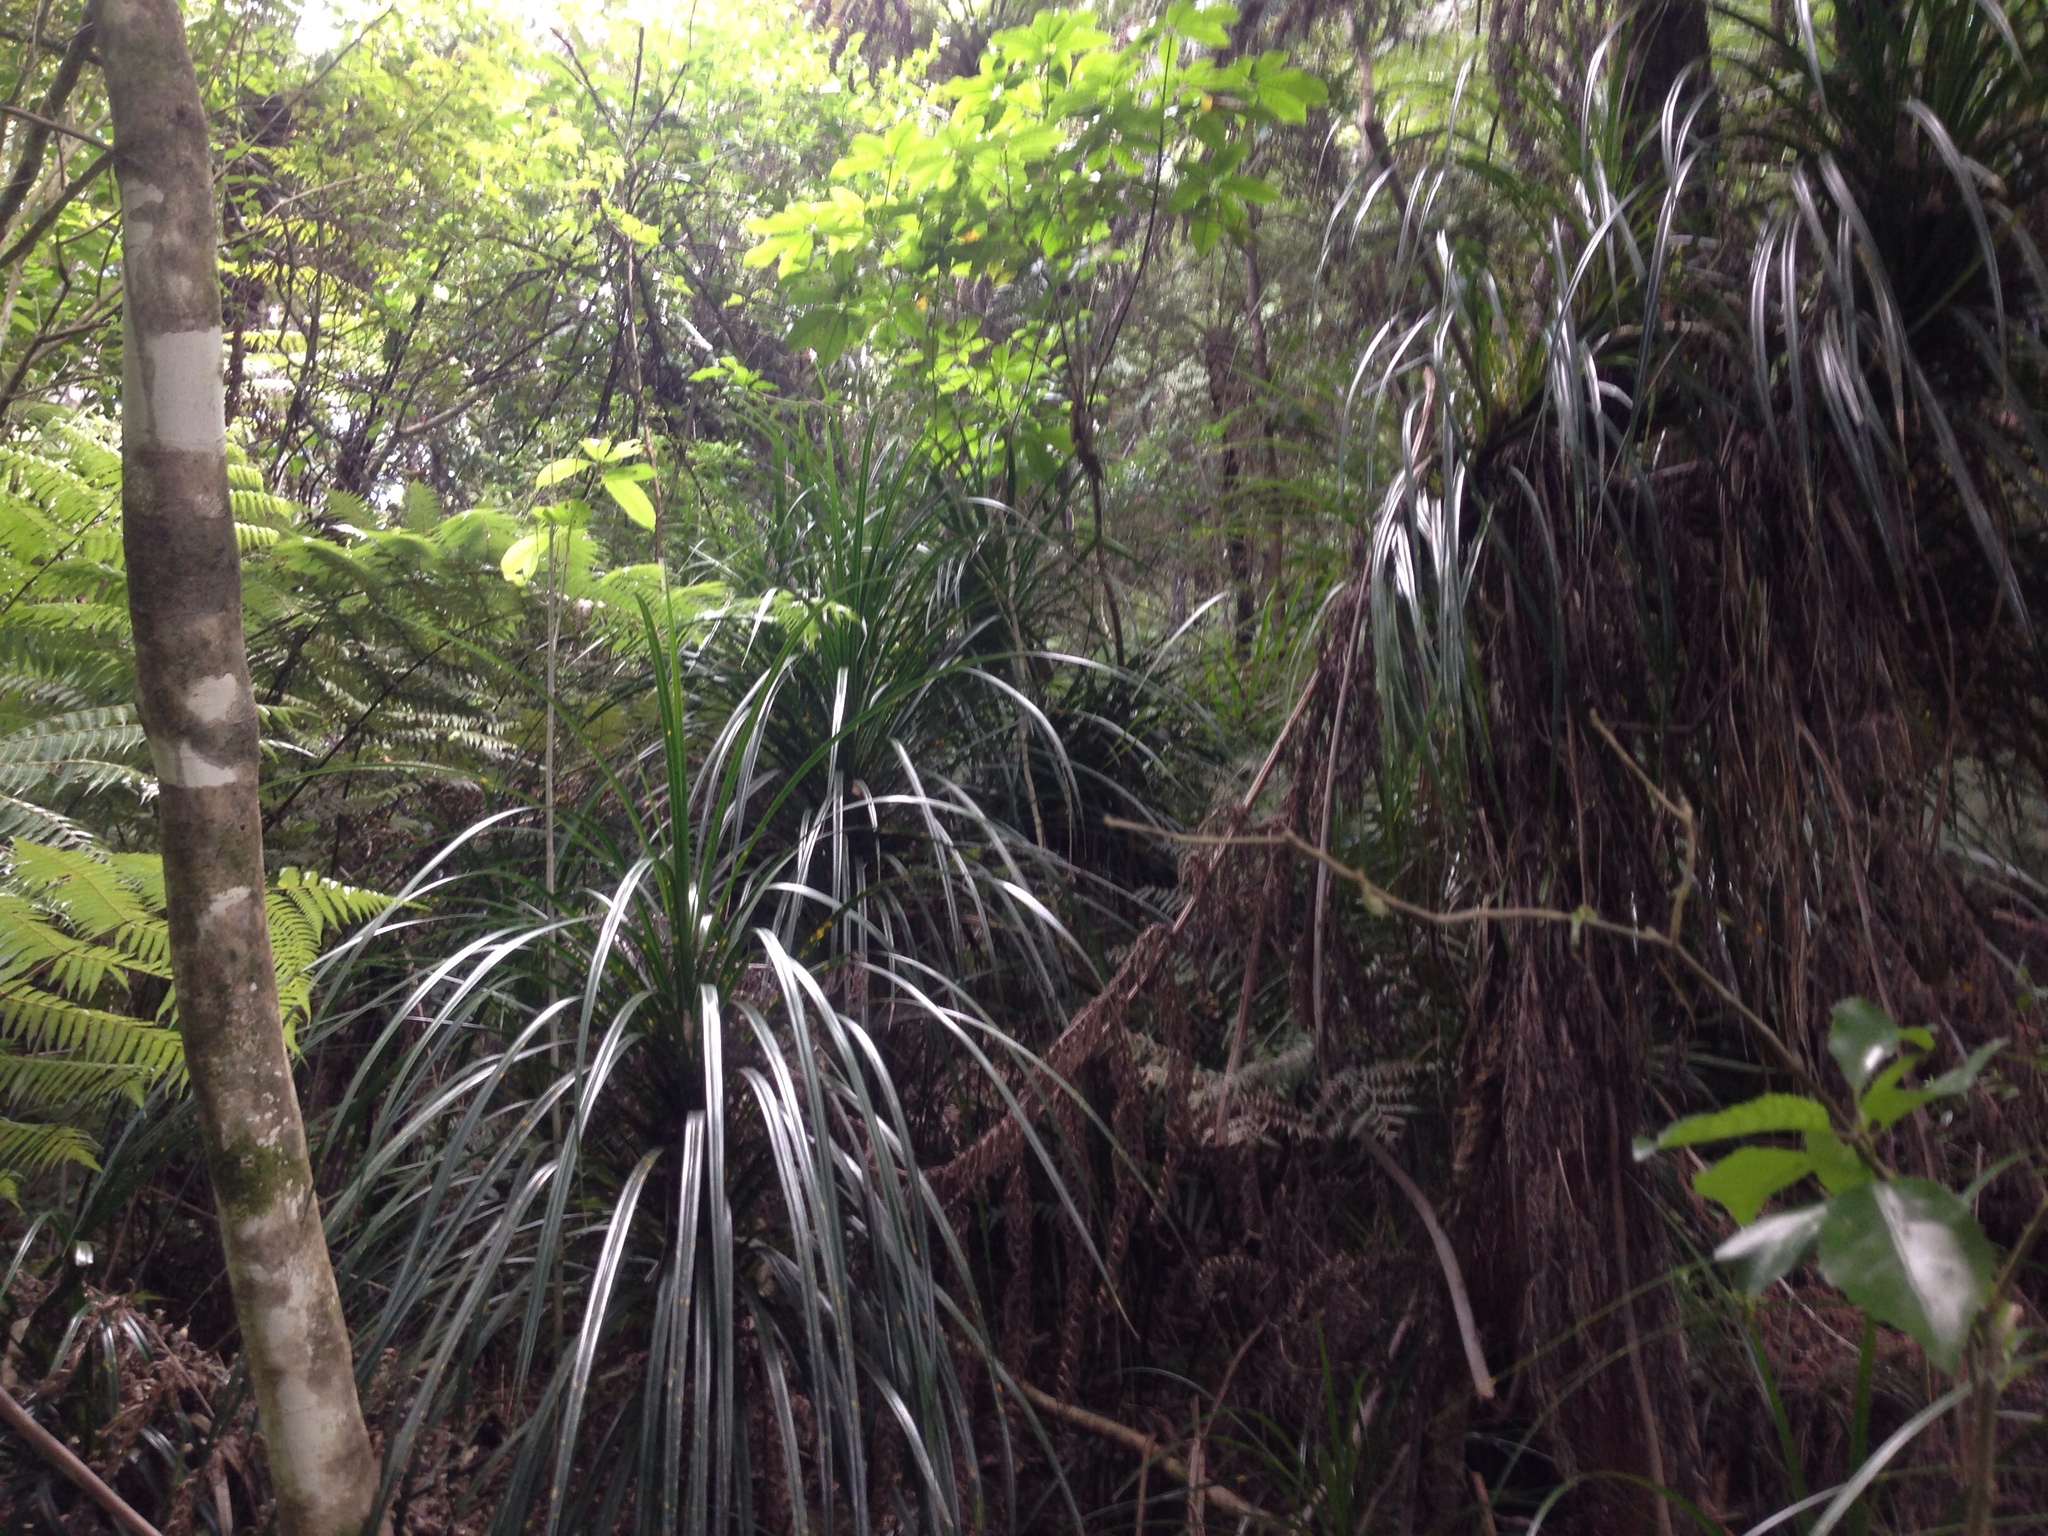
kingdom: Plantae
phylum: Tracheophyta
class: Liliopsida
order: Pandanales
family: Pandanaceae
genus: Freycinetia
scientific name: Freycinetia banksii
